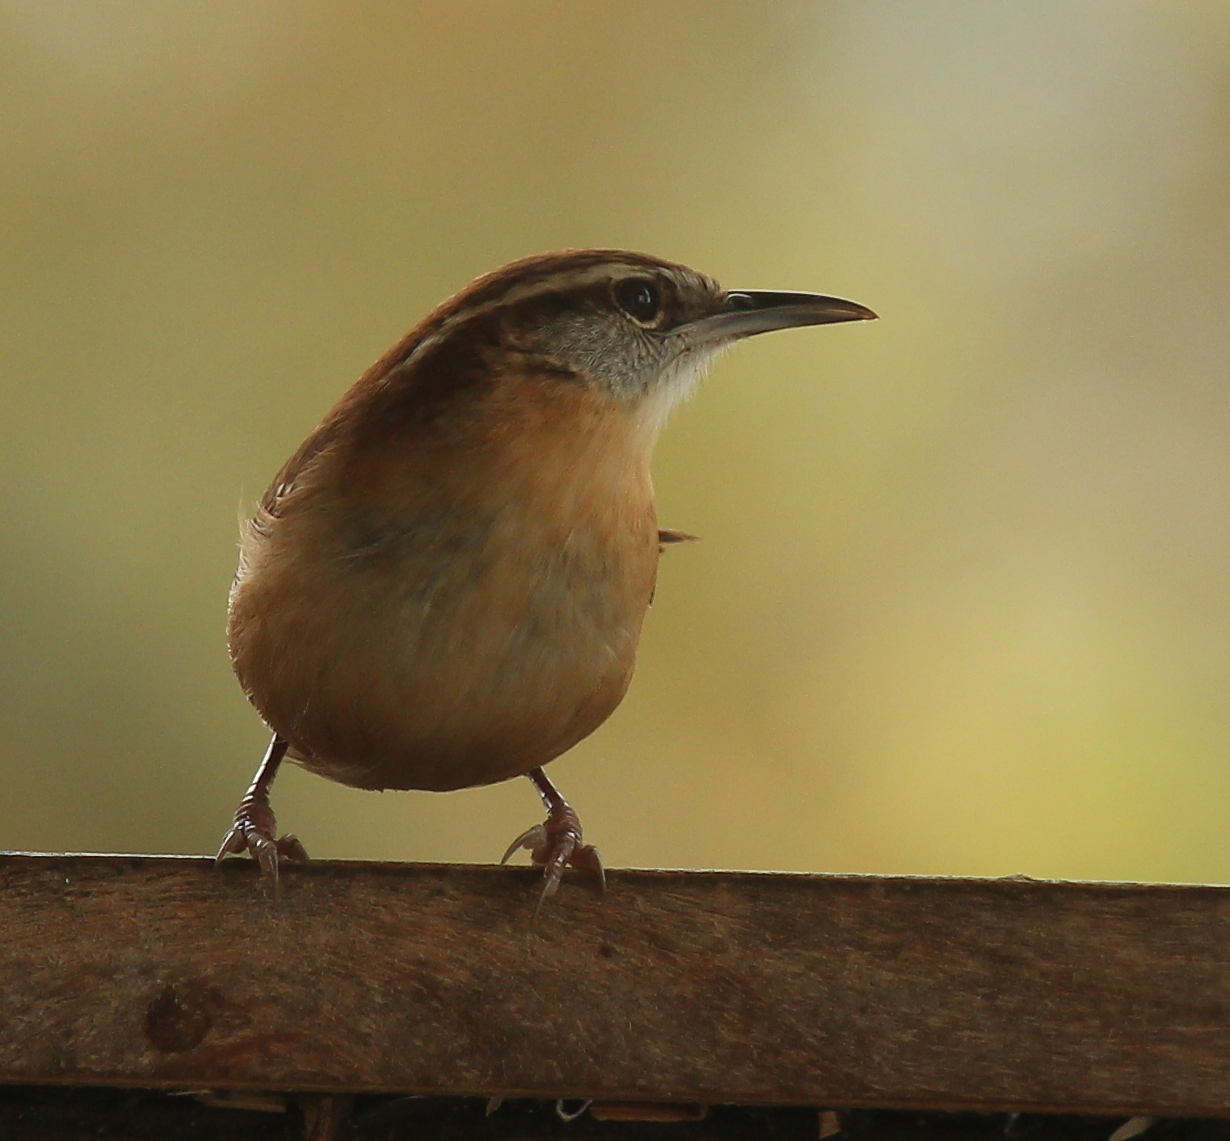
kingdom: Animalia
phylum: Chordata
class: Aves
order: Passeriformes
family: Troglodytidae
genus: Thryothorus
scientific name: Thryothorus ludovicianus
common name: Carolina wren
